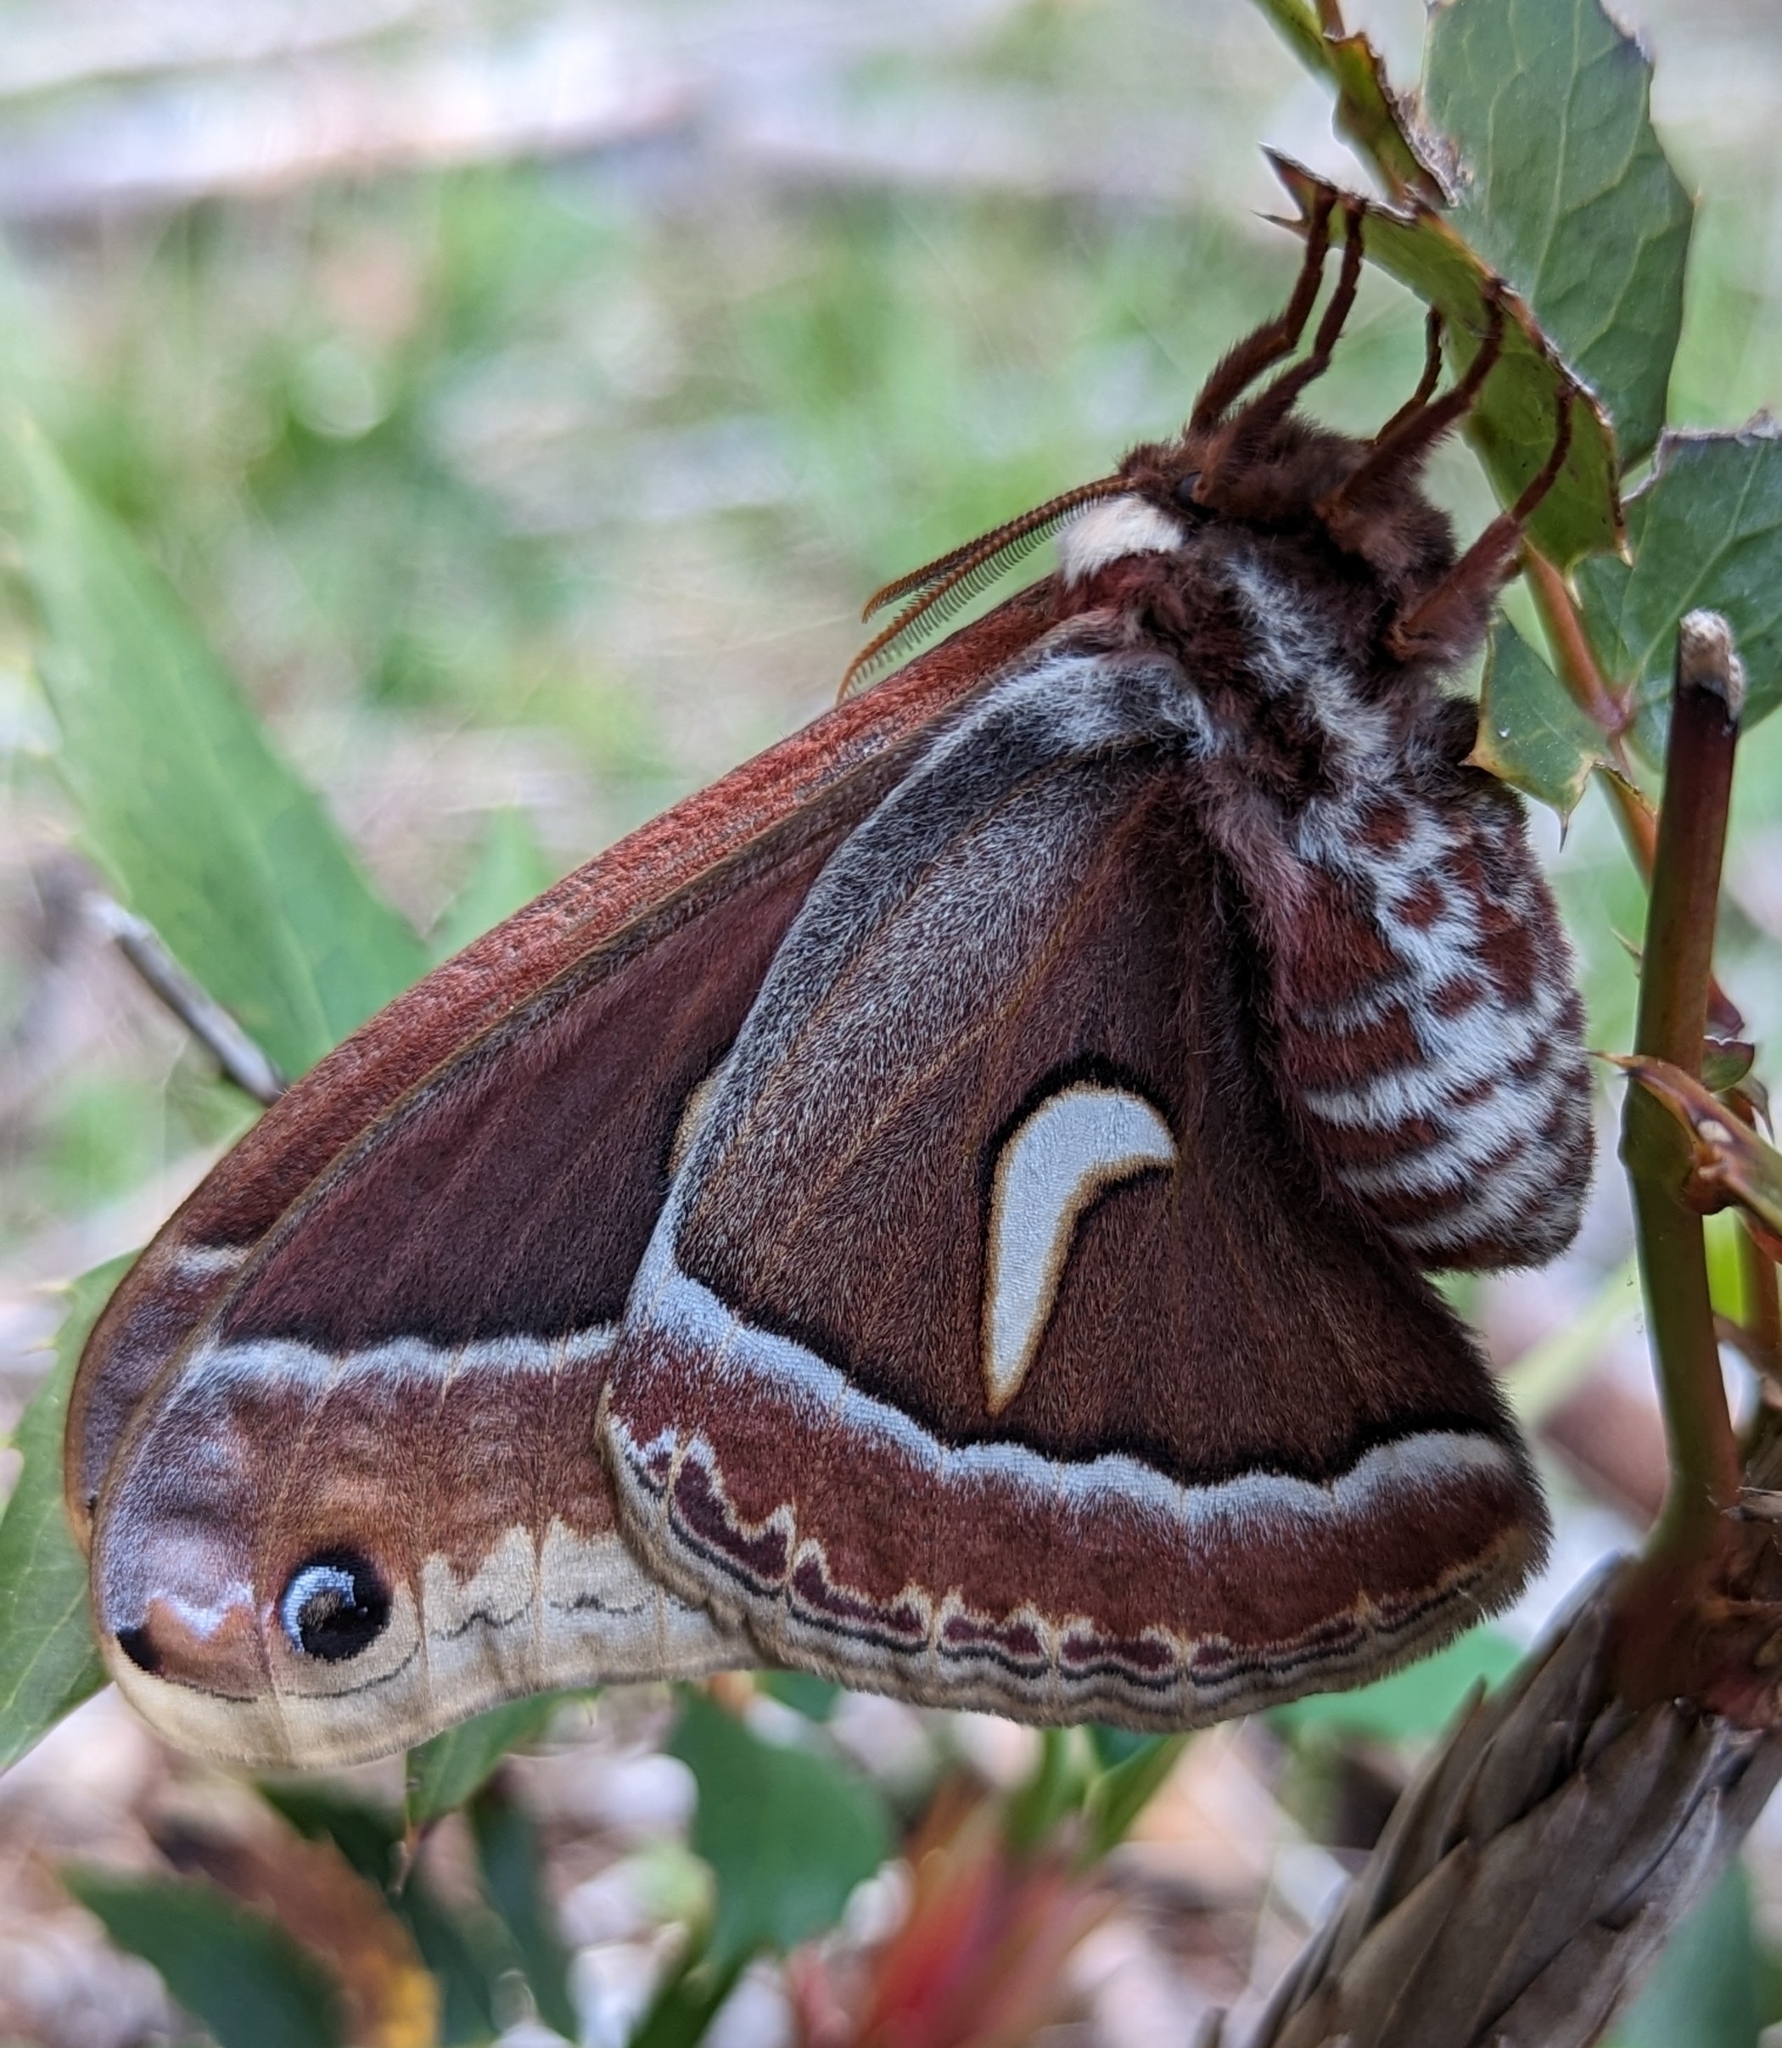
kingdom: Animalia
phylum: Arthropoda
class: Insecta
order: Lepidoptera
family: Saturniidae
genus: Hyalophora
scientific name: Hyalophora euryalus
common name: Ceanothus silkmoth
